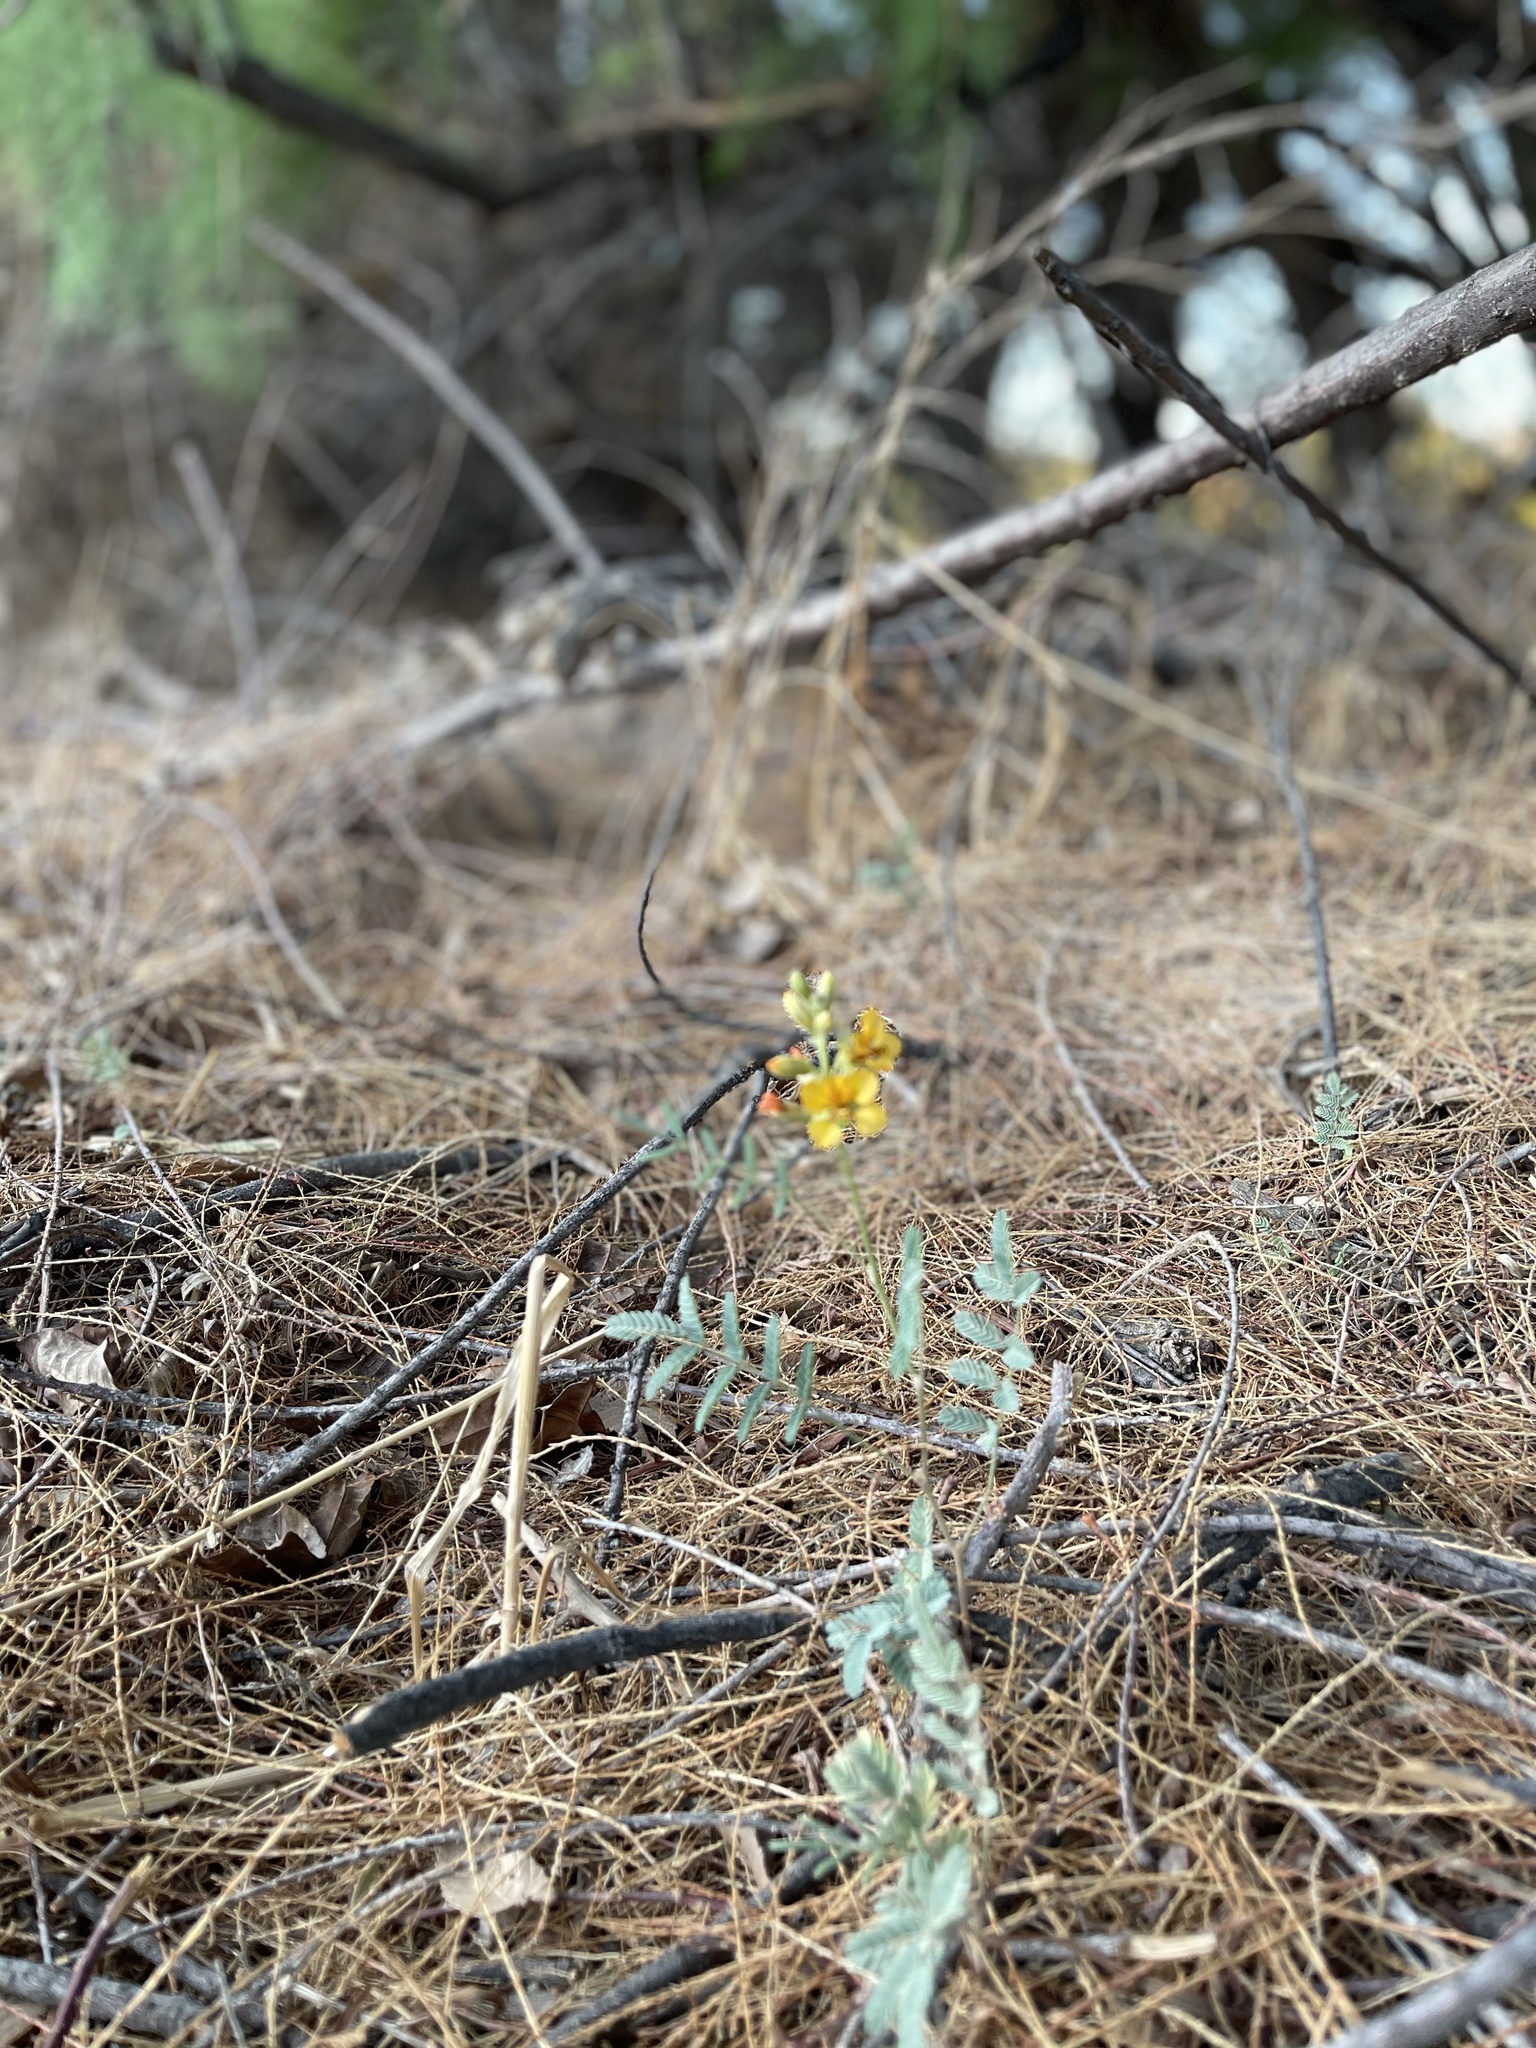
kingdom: Plantae
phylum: Tracheophyta
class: Magnoliopsida
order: Fabales
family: Fabaceae
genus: Hoffmannseggia
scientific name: Hoffmannseggia glauca
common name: Pignut
